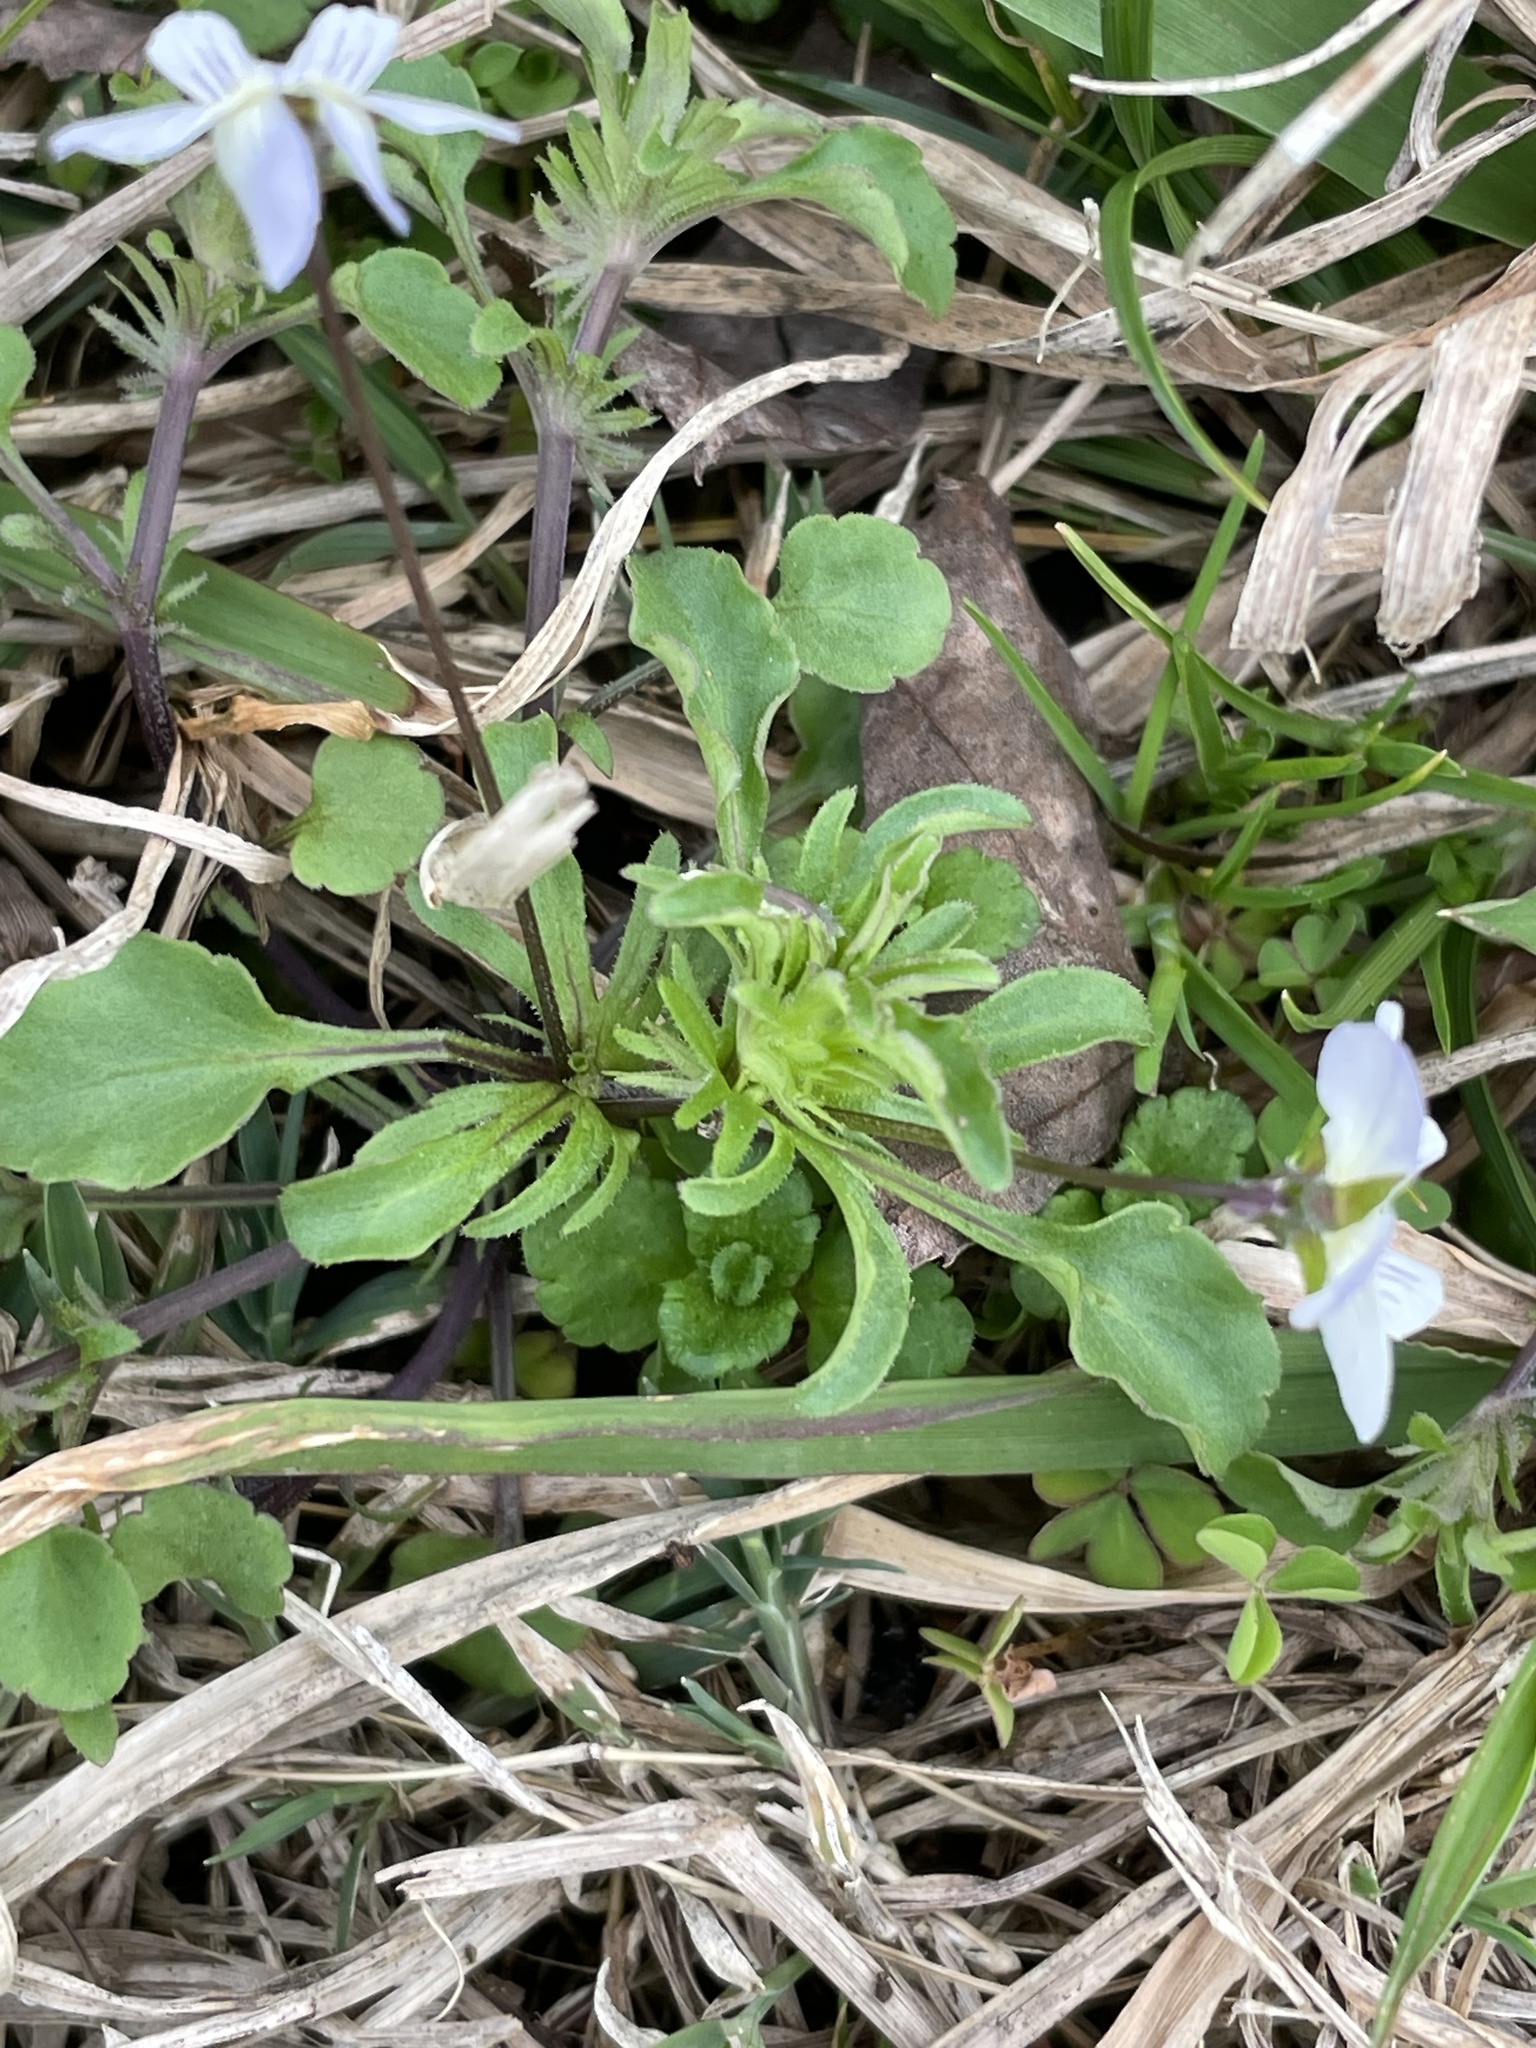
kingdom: Plantae
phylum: Tracheophyta
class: Magnoliopsida
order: Malpighiales
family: Violaceae
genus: Viola
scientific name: Viola rafinesquei
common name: American field pansy
